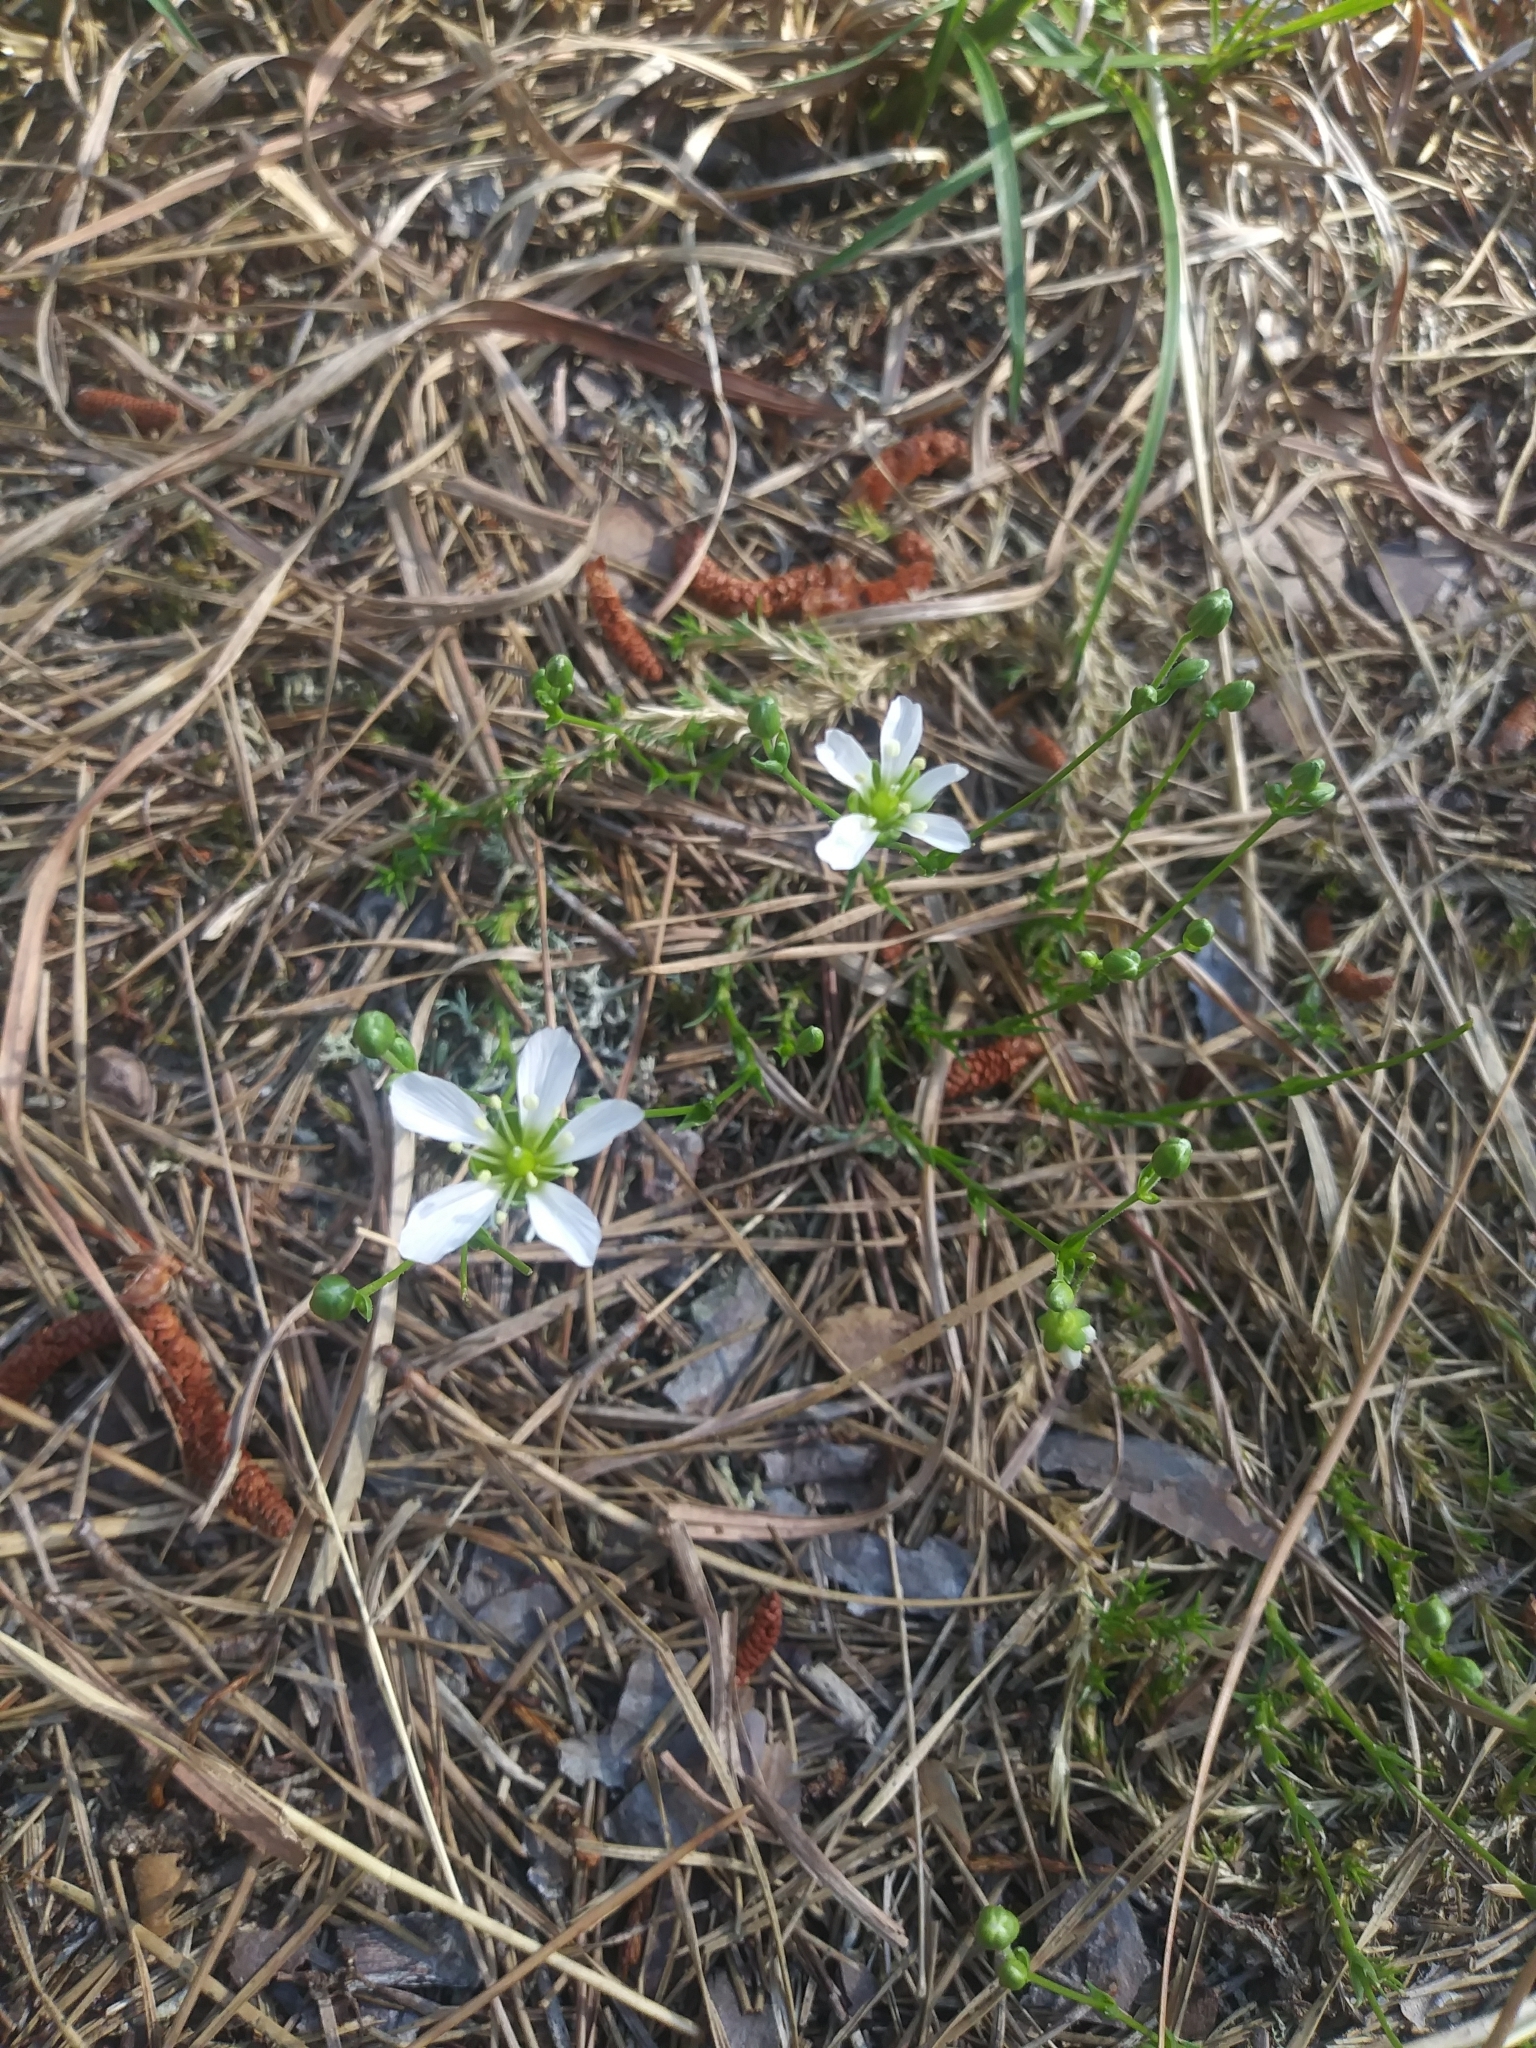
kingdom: Plantae
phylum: Tracheophyta
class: Magnoliopsida
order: Caryophyllales
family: Caryophyllaceae
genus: Geocarpon
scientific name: Geocarpon carolinianum
